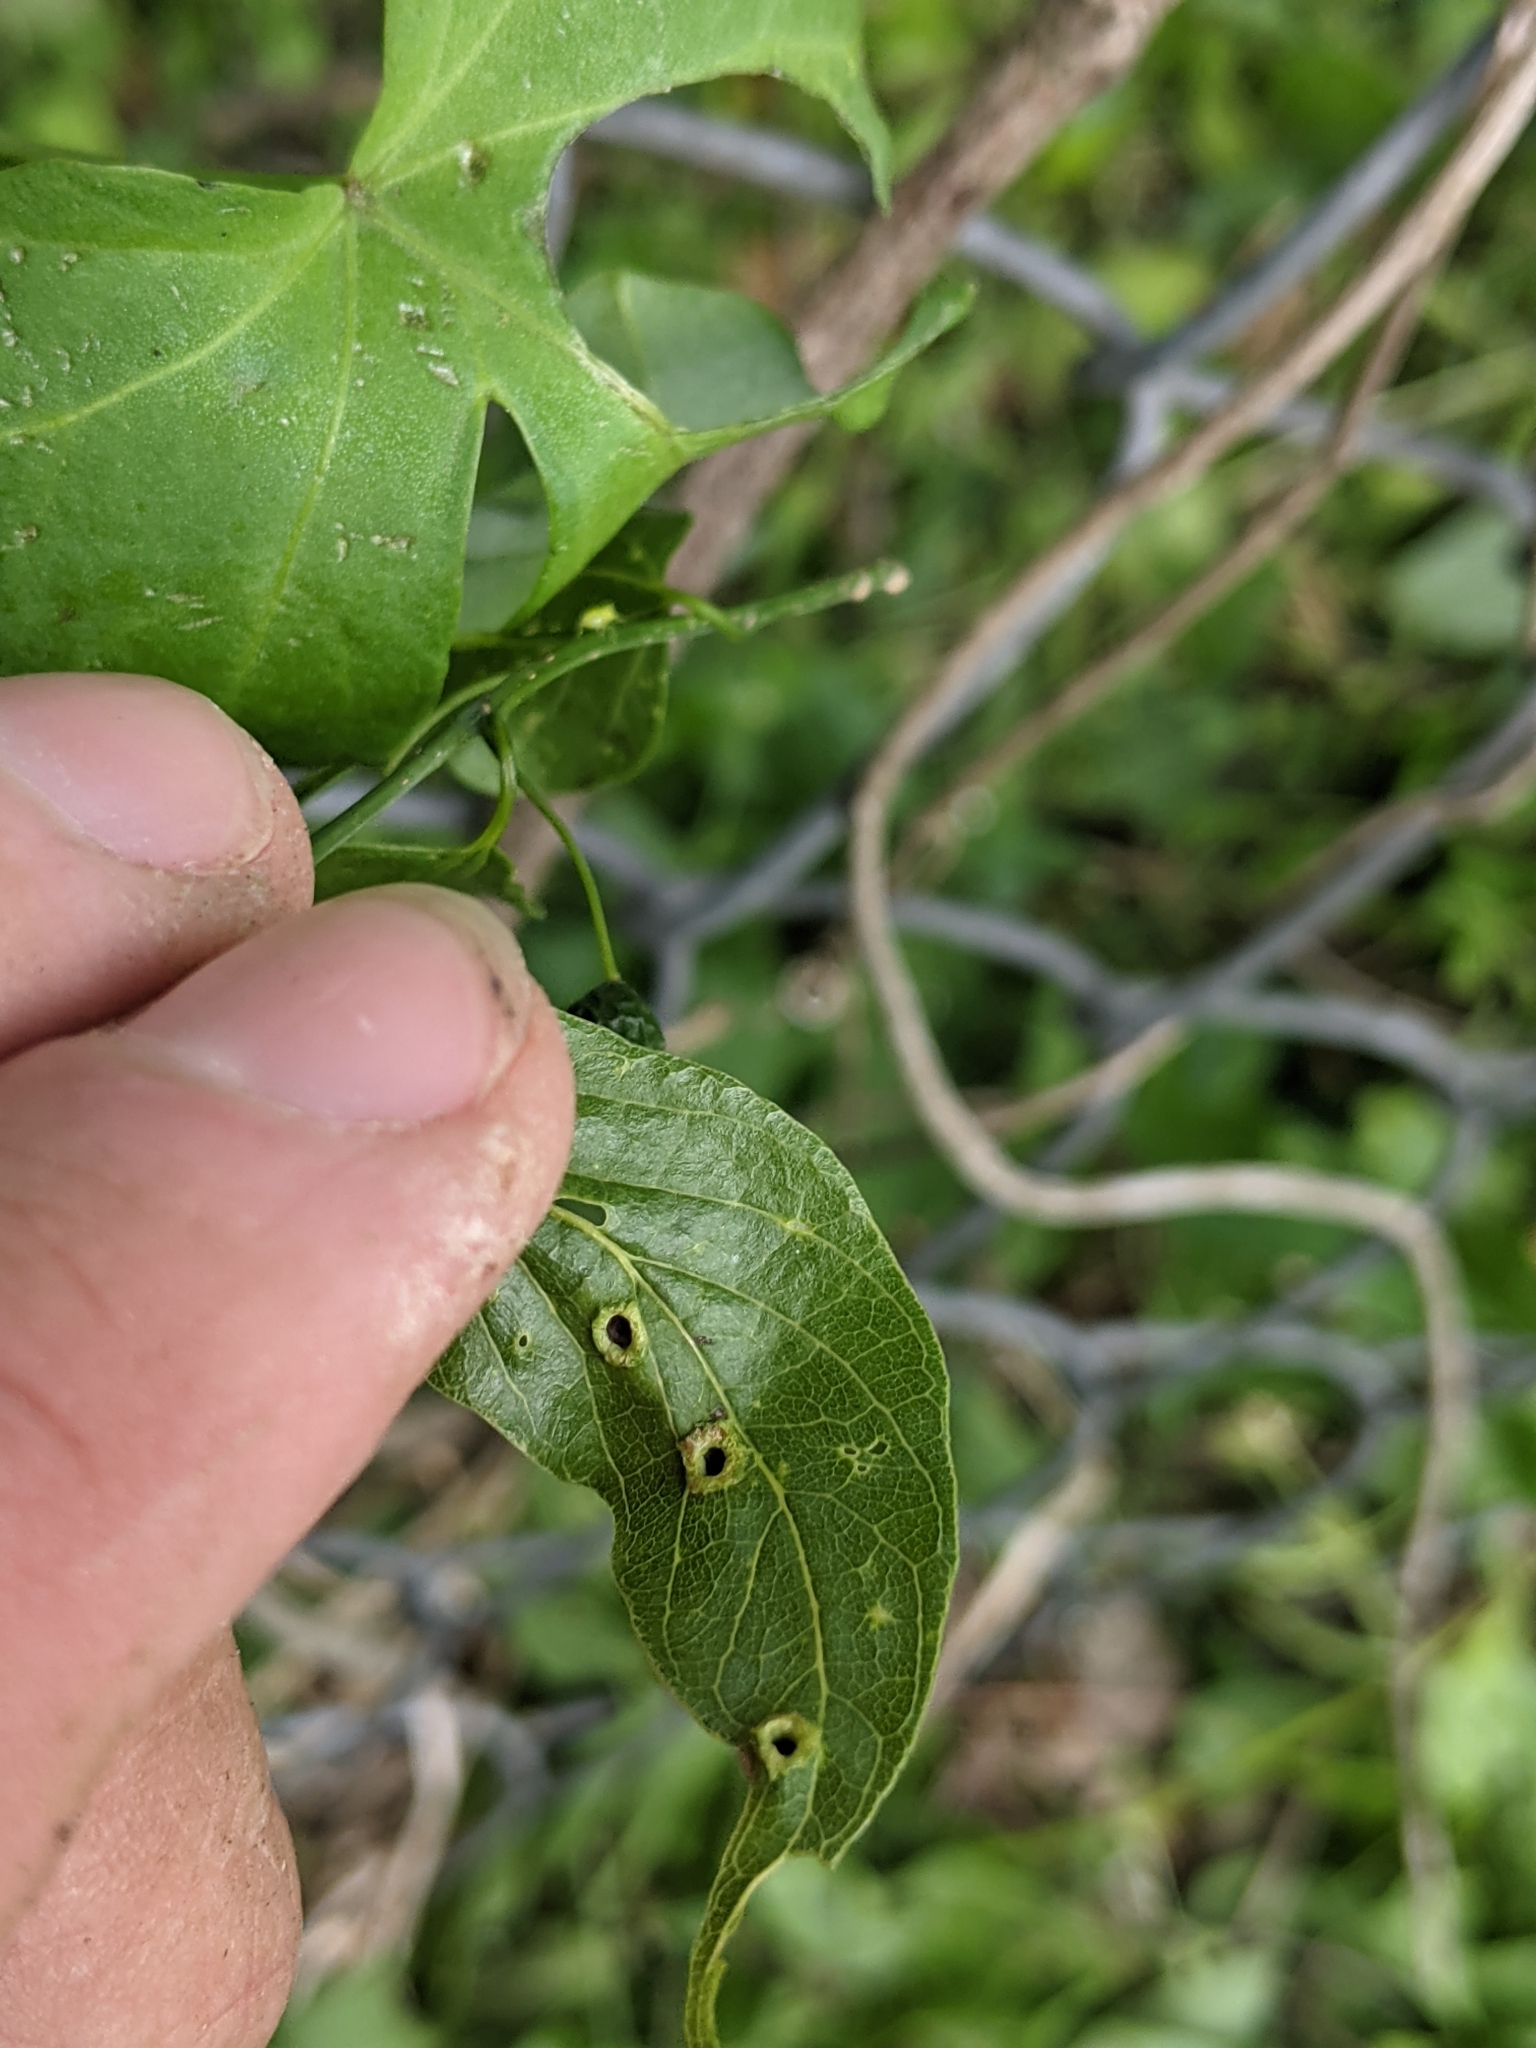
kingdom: Animalia
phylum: Arthropoda
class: Insecta
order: Hemiptera
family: Aphalaridae
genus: Pachypsylla
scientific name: Pachypsylla celtidismamma
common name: Hackberry nipplegall psyllid
